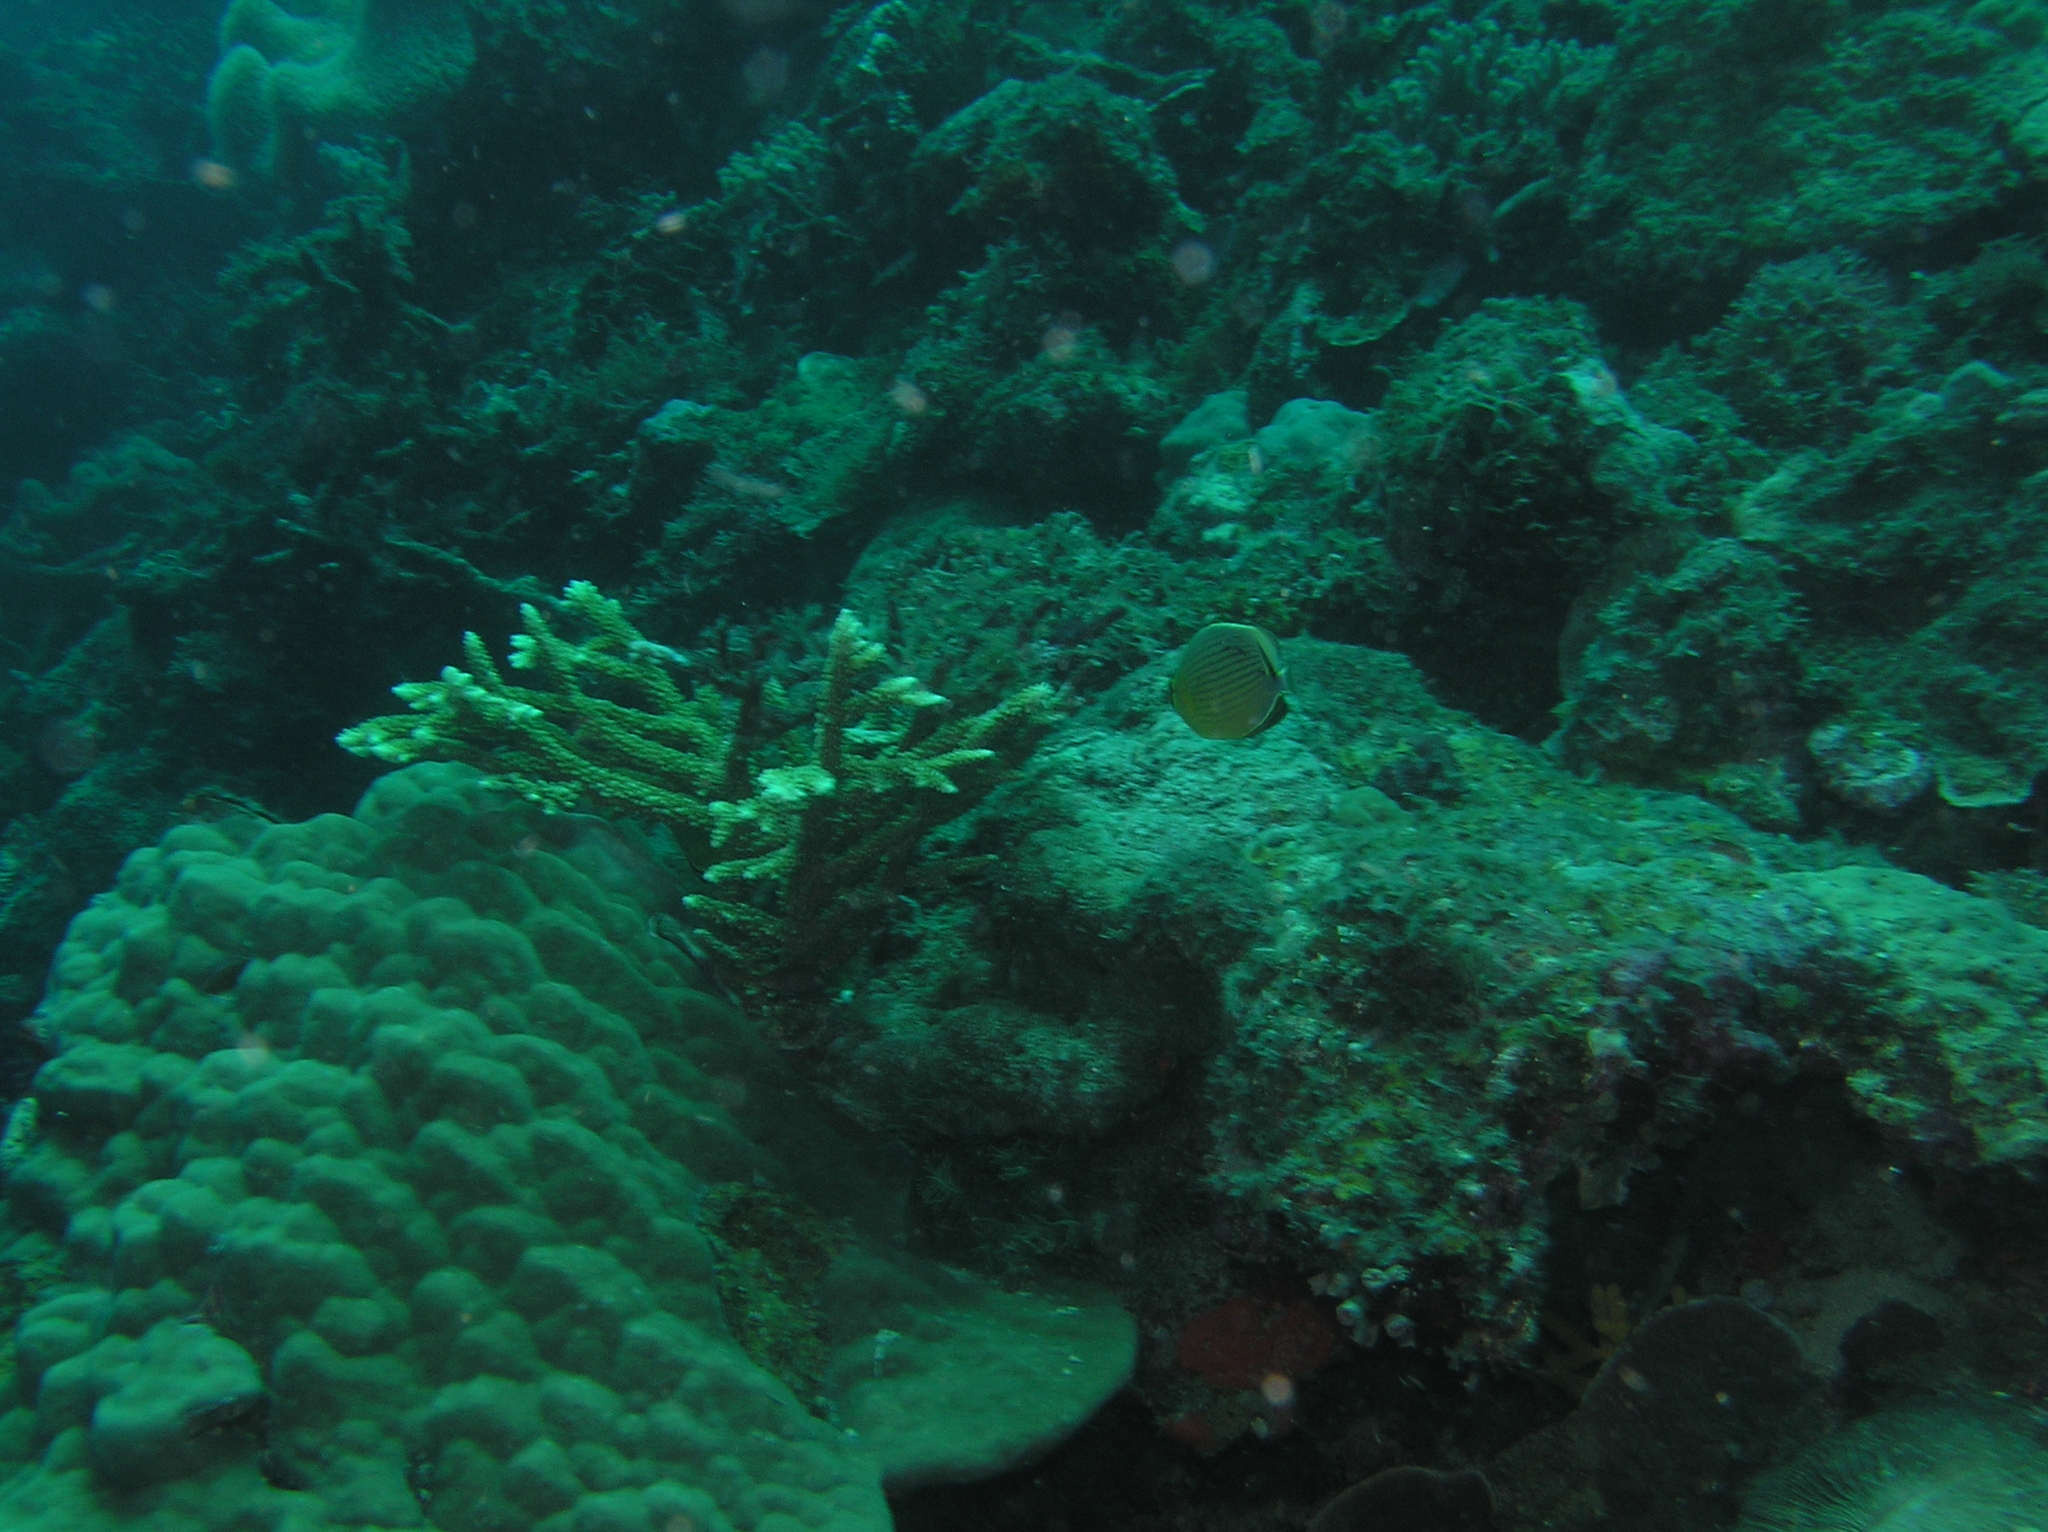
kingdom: Animalia
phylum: Chordata
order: Perciformes
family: Chaetodontidae
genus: Chaetodon
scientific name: Chaetodon lunulatus
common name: Redfin butterflyfish
